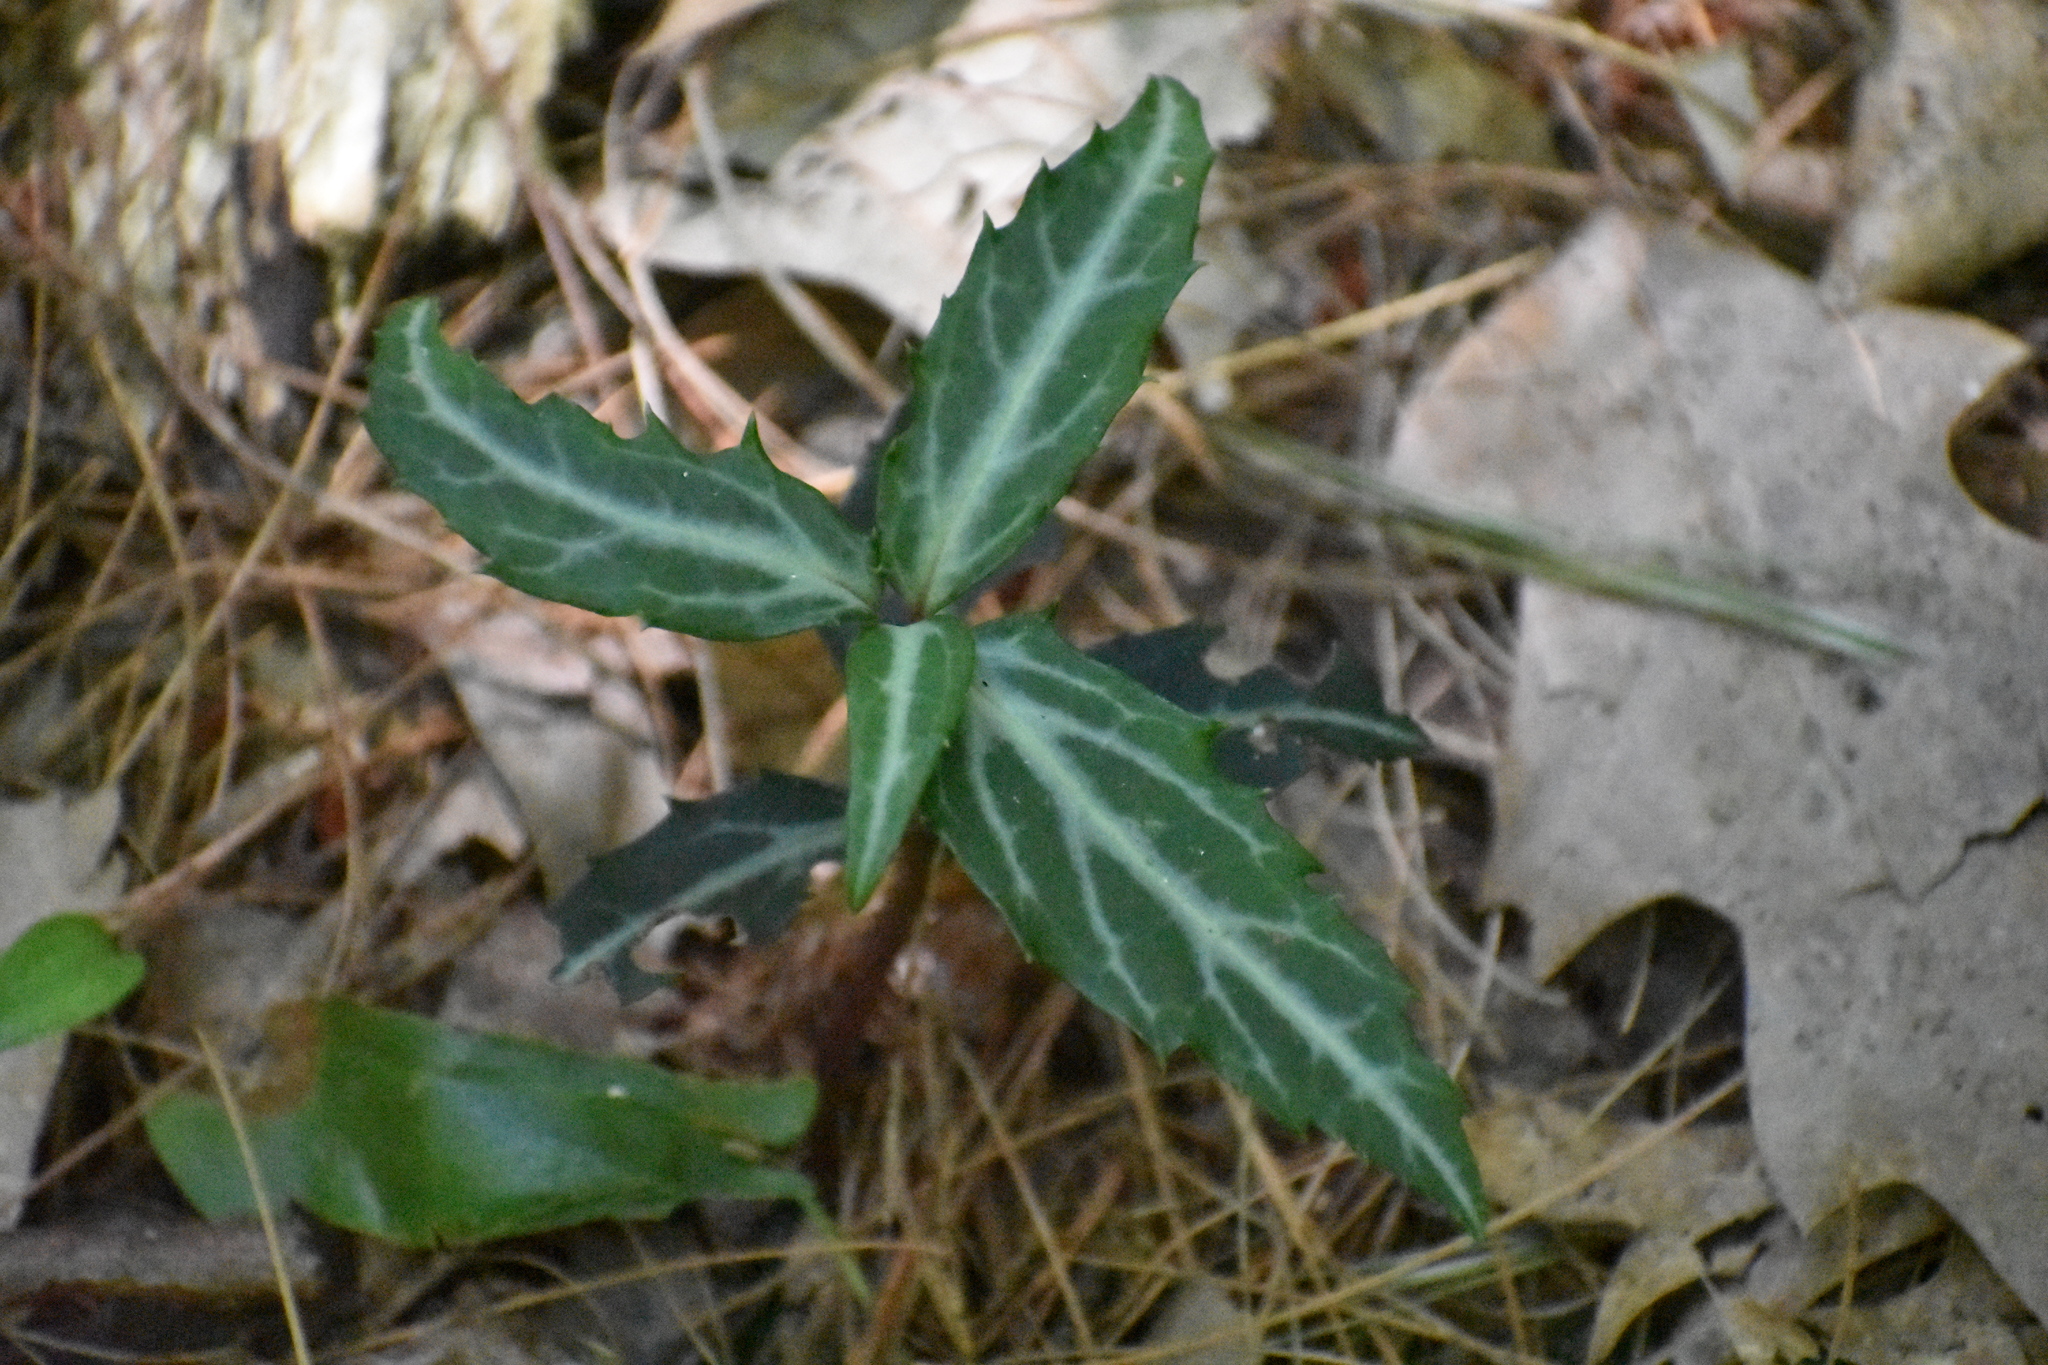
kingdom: Plantae
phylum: Tracheophyta
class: Magnoliopsida
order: Ericales
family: Ericaceae
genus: Chimaphila
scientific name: Chimaphila maculata
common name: Spotted pipsissewa
